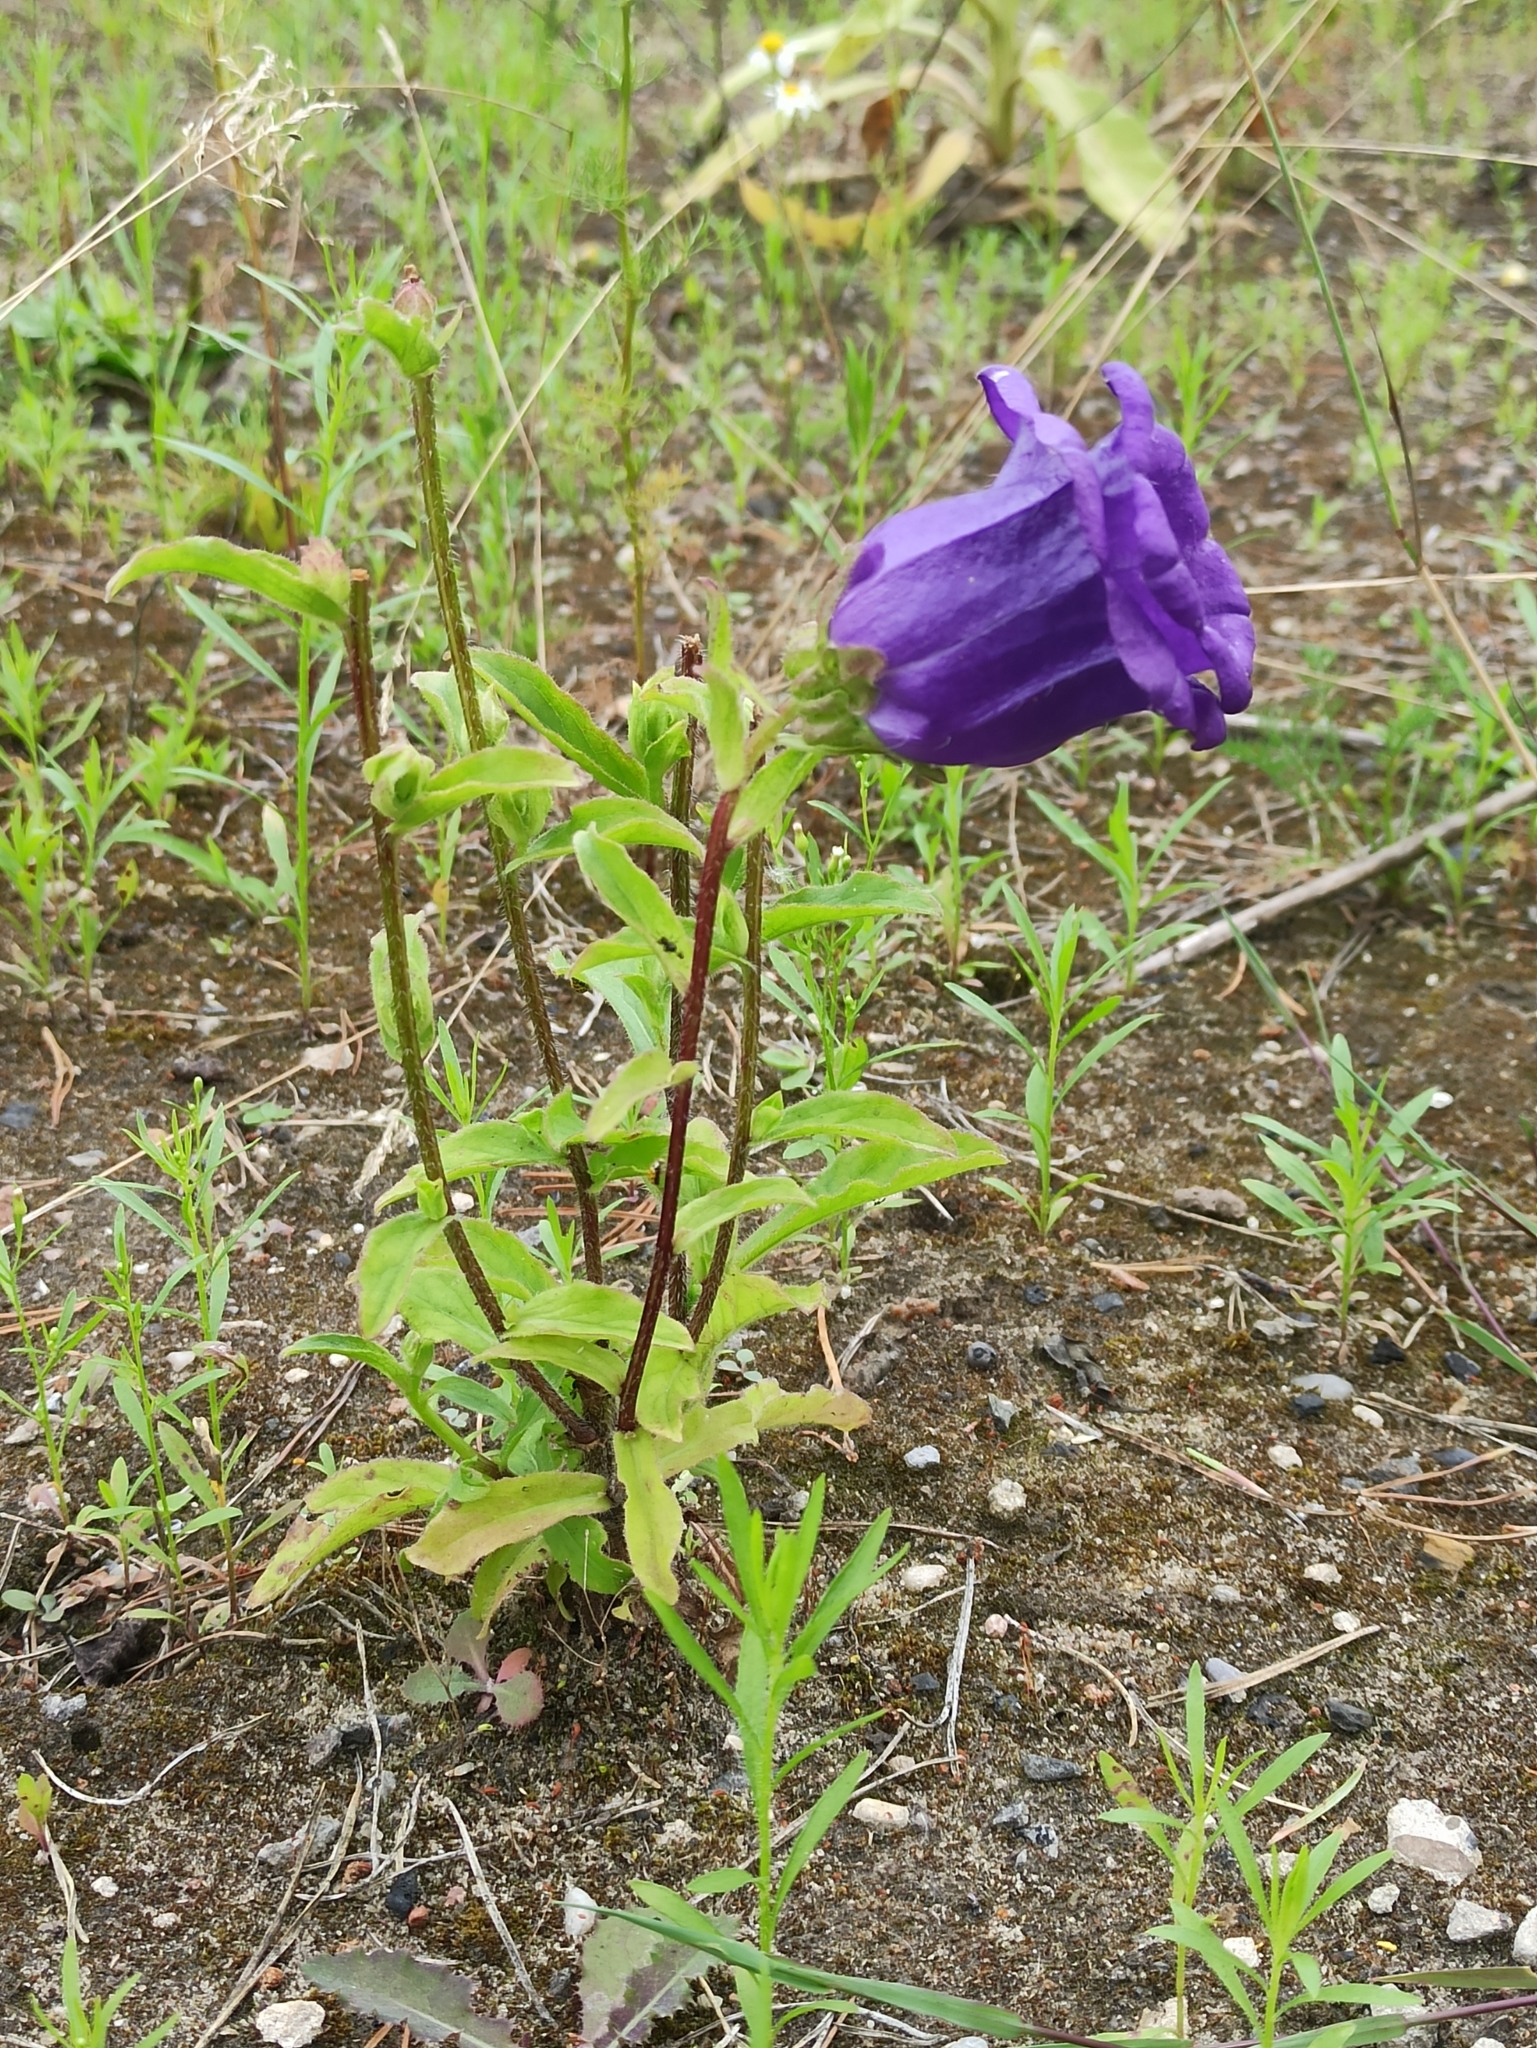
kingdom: Plantae
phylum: Tracheophyta
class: Magnoliopsida
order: Asterales
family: Campanulaceae
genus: Campanula
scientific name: Campanula medium
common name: Canterbury bells
